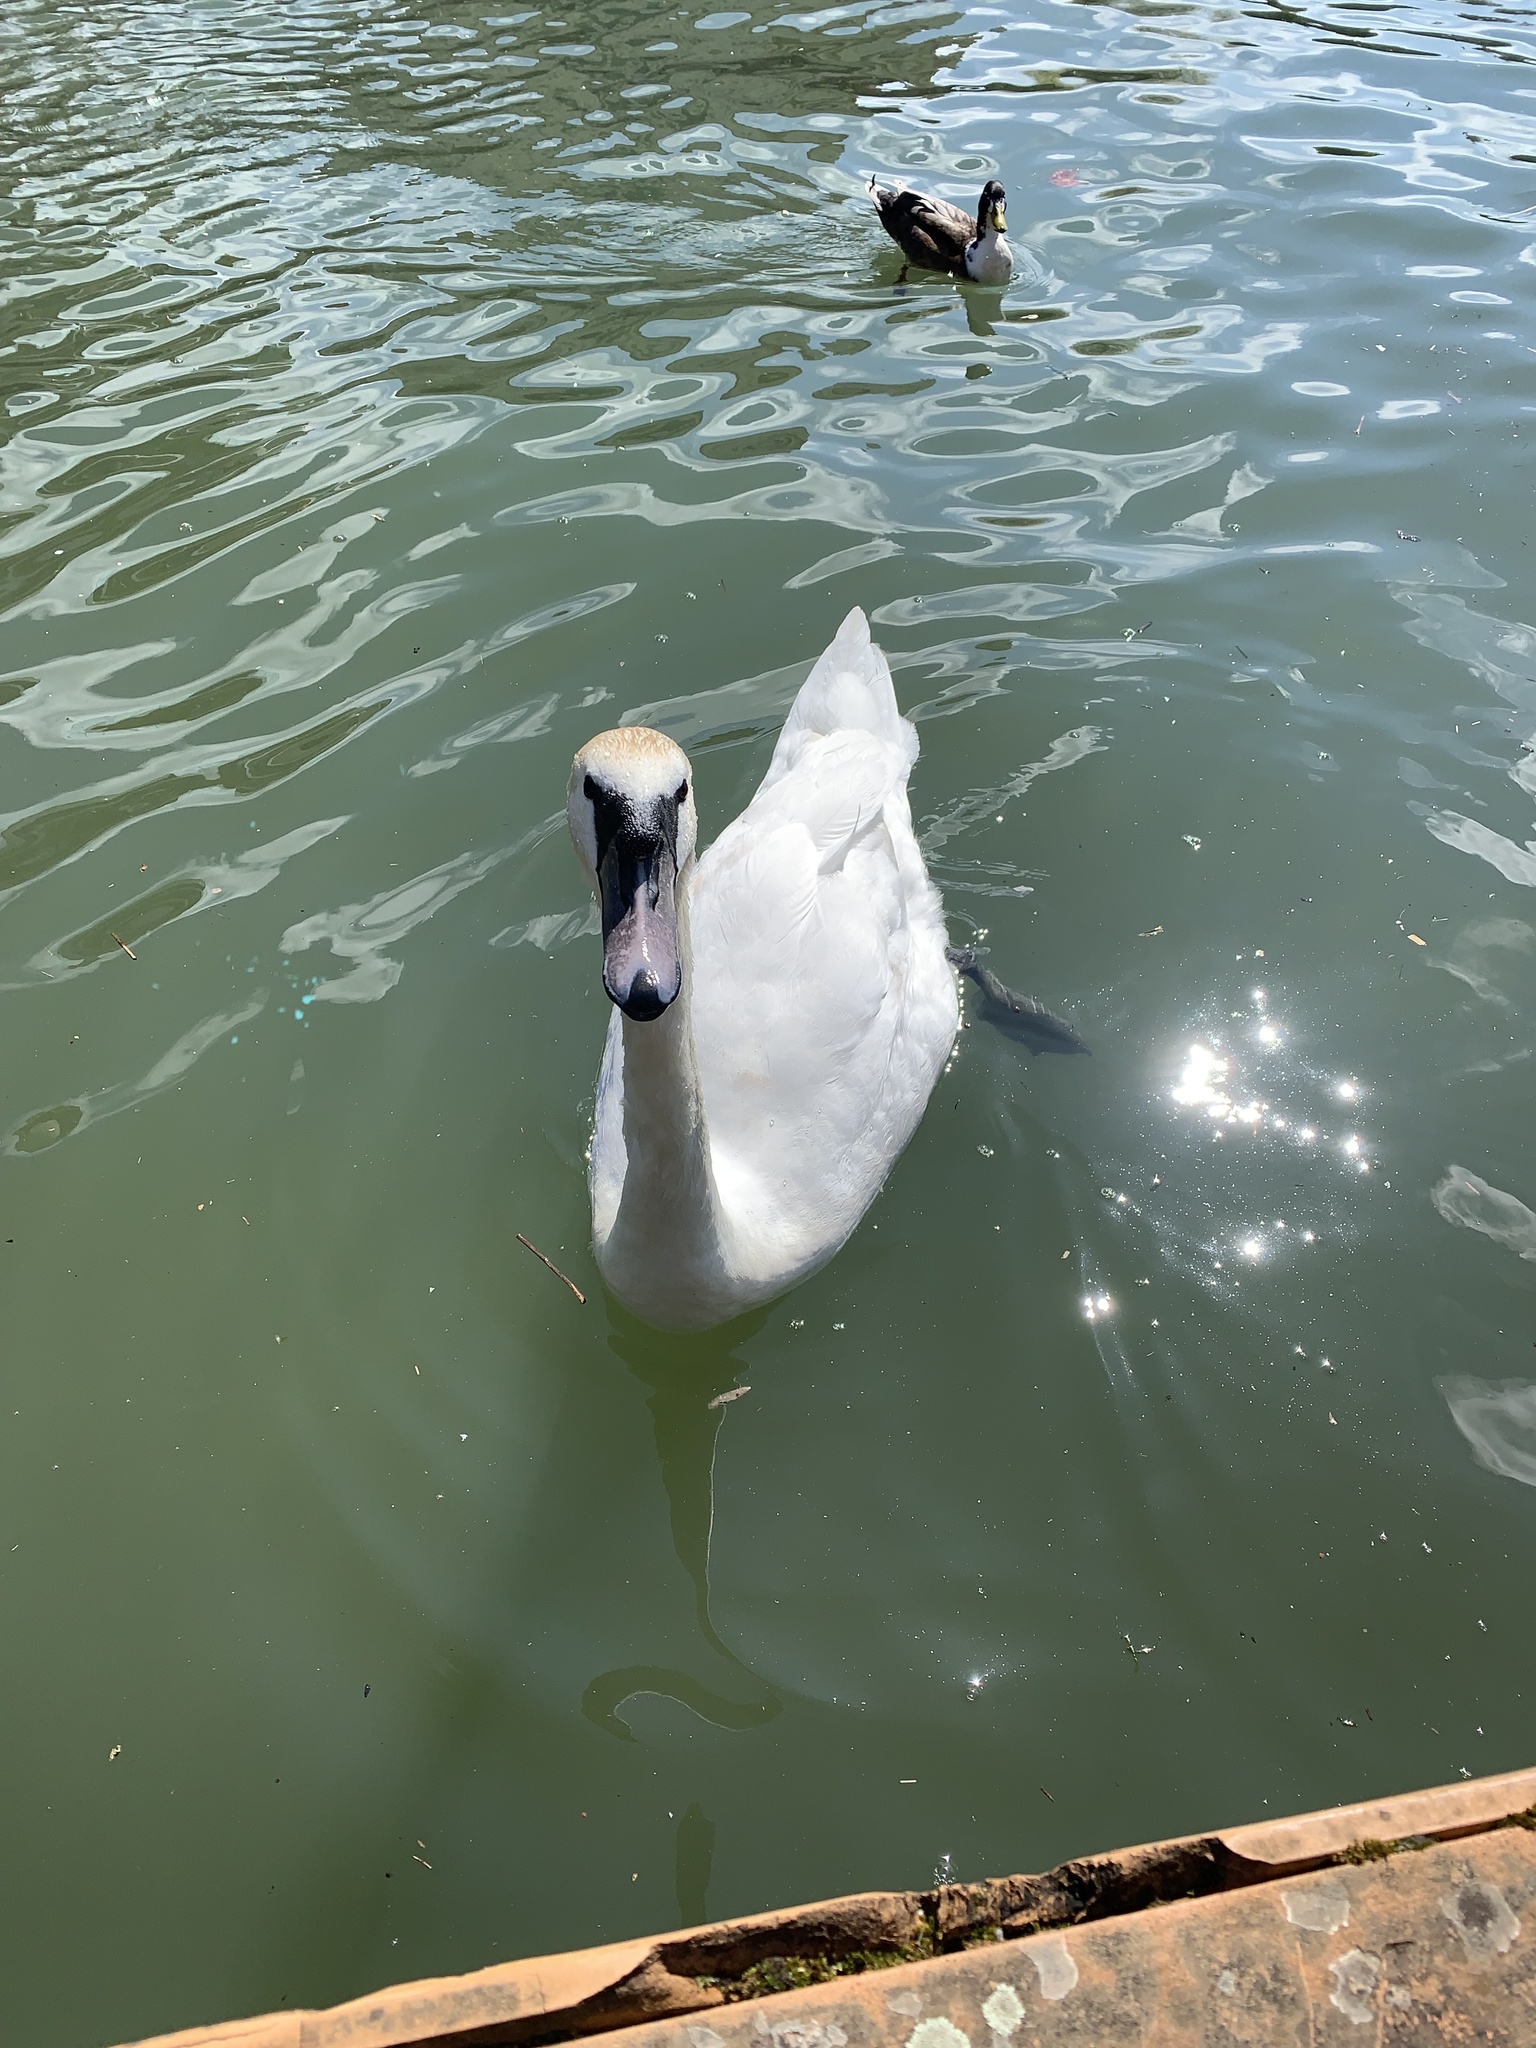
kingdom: Animalia
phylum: Chordata
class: Aves
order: Anseriformes
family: Anatidae
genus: Cygnus
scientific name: Cygnus olor
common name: Mute swan
